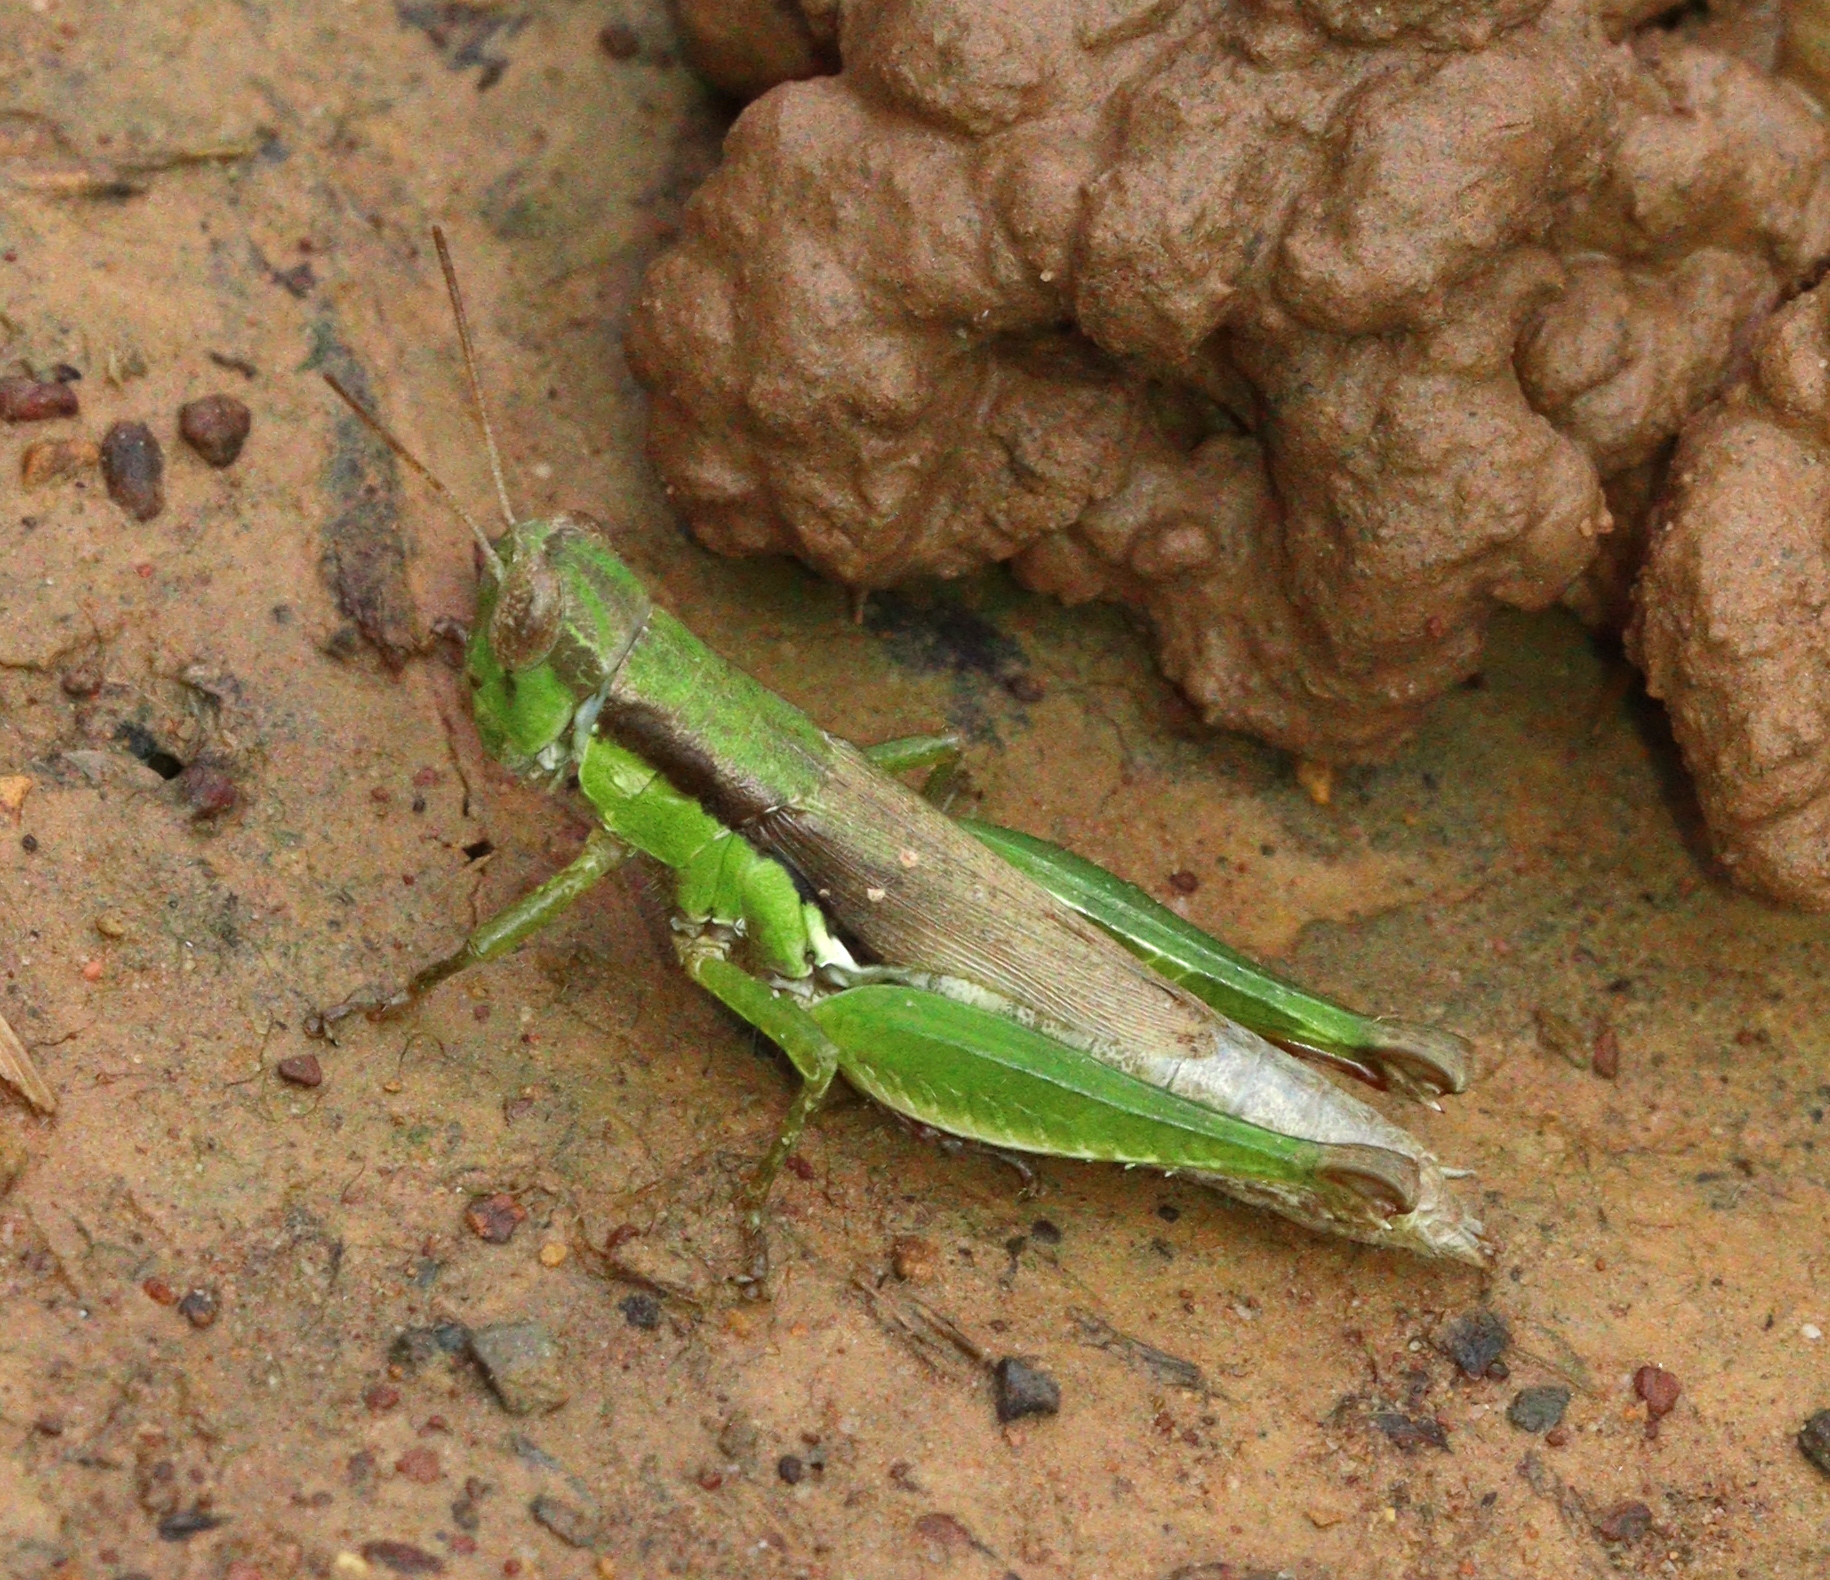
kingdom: Animalia
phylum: Arthropoda
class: Insecta
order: Orthoptera
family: Acrididae
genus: Pseudoxya
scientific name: Pseudoxya diminuta
